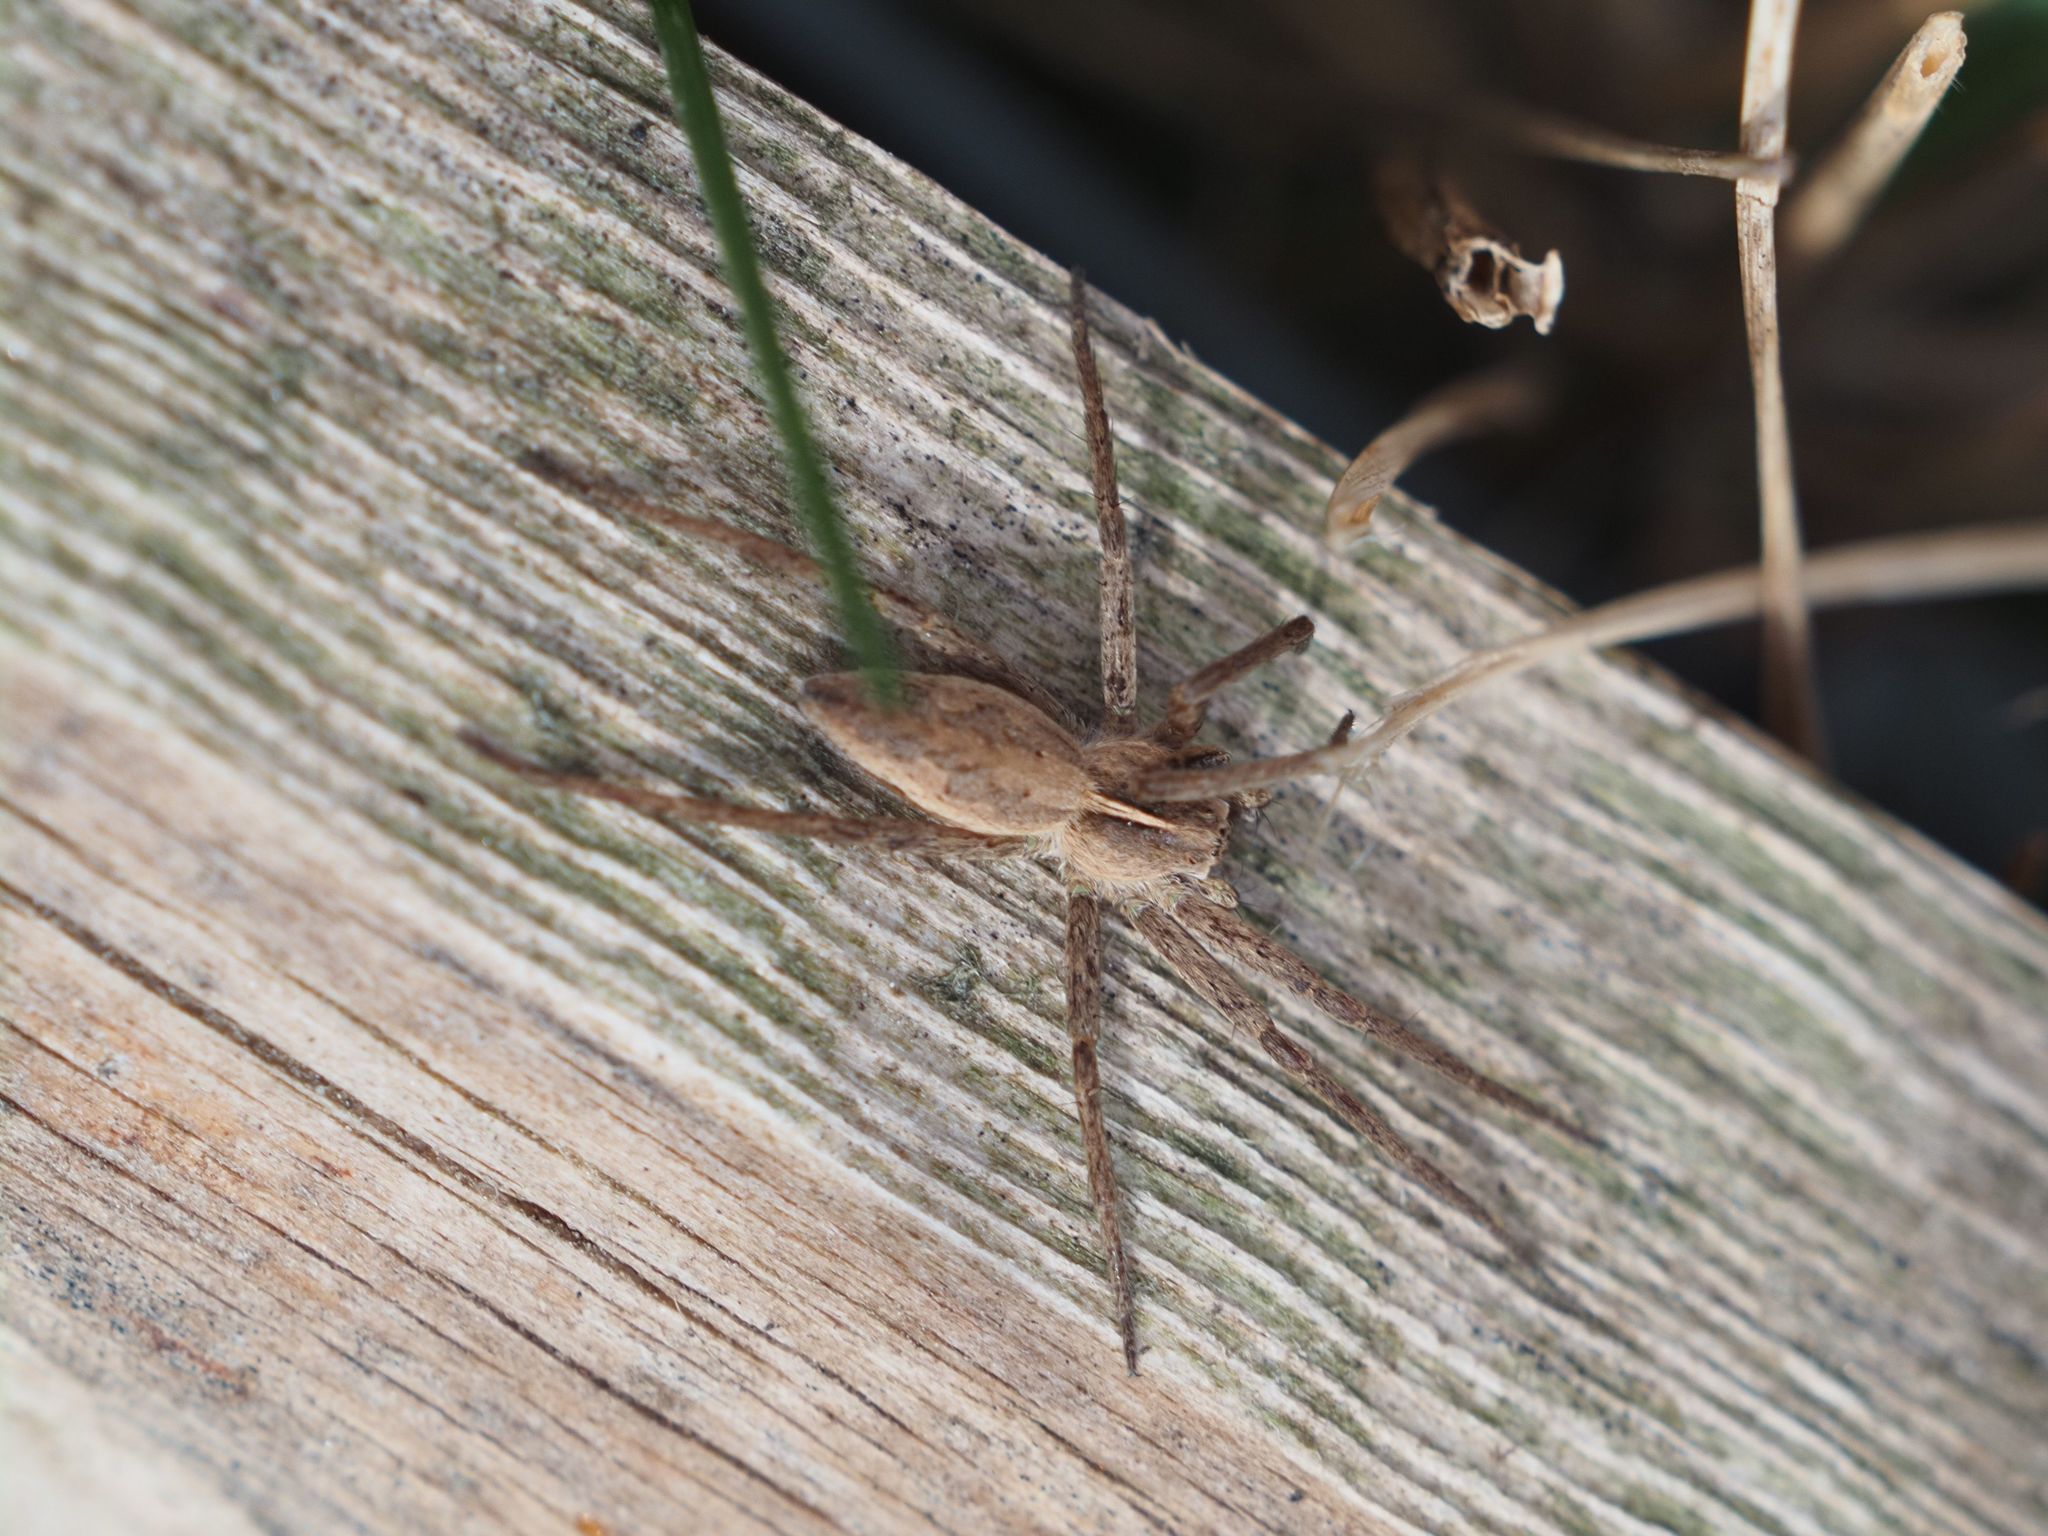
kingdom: Animalia
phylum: Arthropoda
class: Arachnida
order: Araneae
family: Pisauridae
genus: Pisaura
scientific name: Pisaura mirabilis
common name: Tent spider
